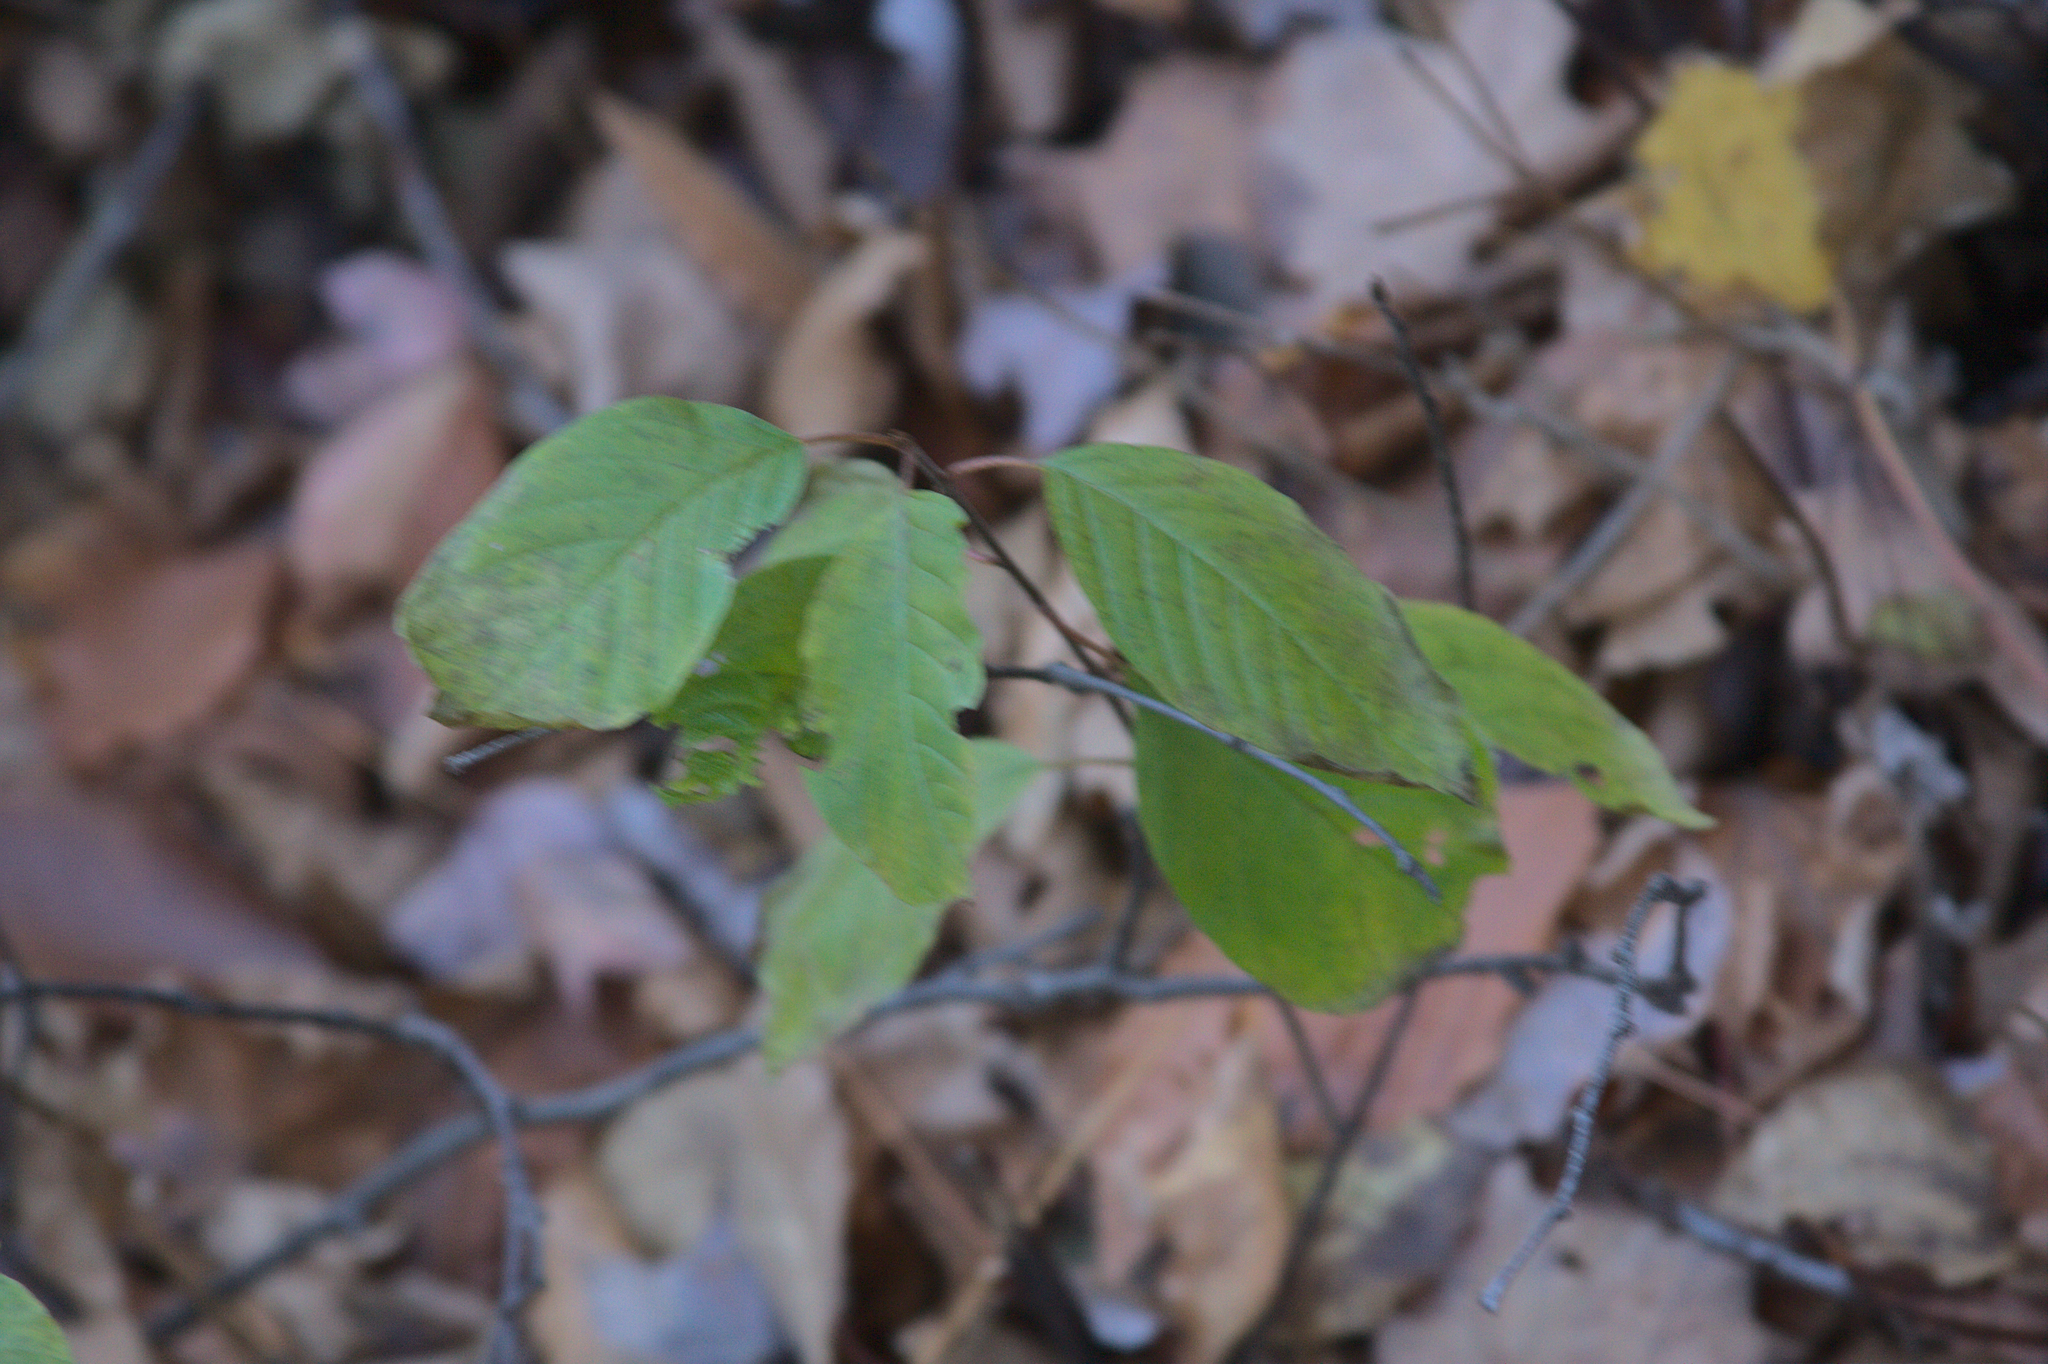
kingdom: Plantae
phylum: Tracheophyta
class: Magnoliopsida
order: Rosales
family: Rhamnaceae
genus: Frangula
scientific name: Frangula alnus
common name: Alder buckthorn
